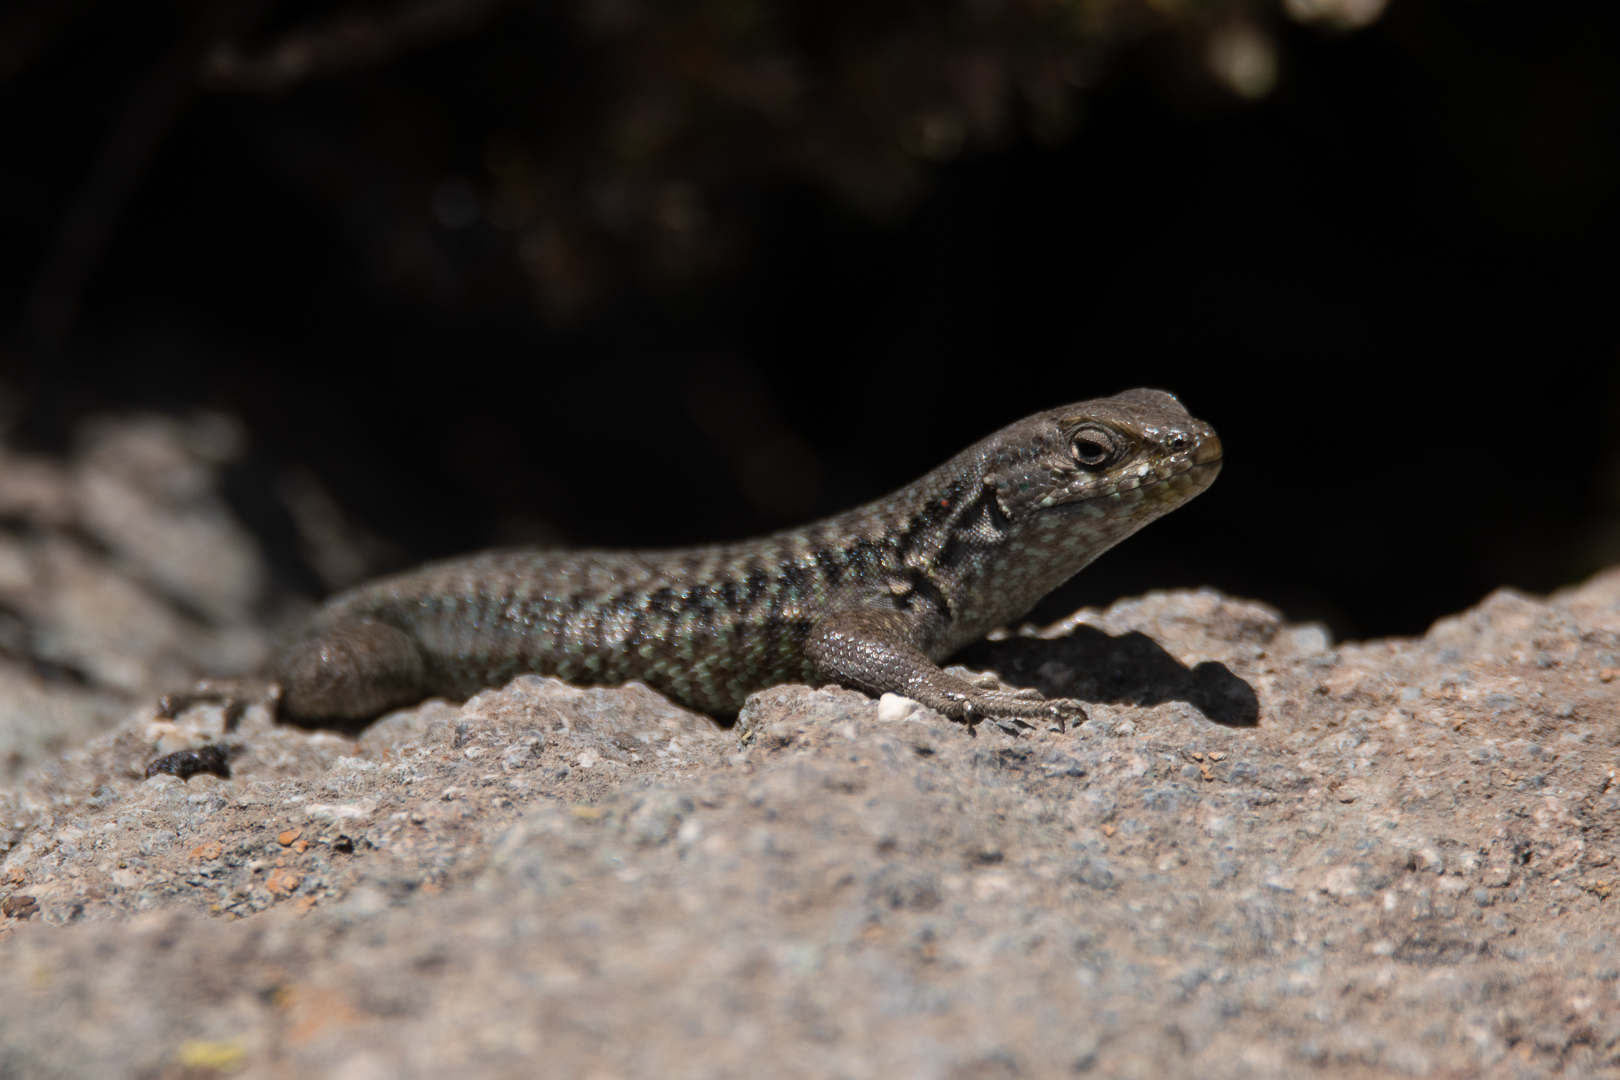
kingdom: Animalia
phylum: Chordata
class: Squamata
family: Liolaemidae
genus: Liolaemus
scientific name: Liolaemus nigroviridis
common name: Black-green tree iguana
